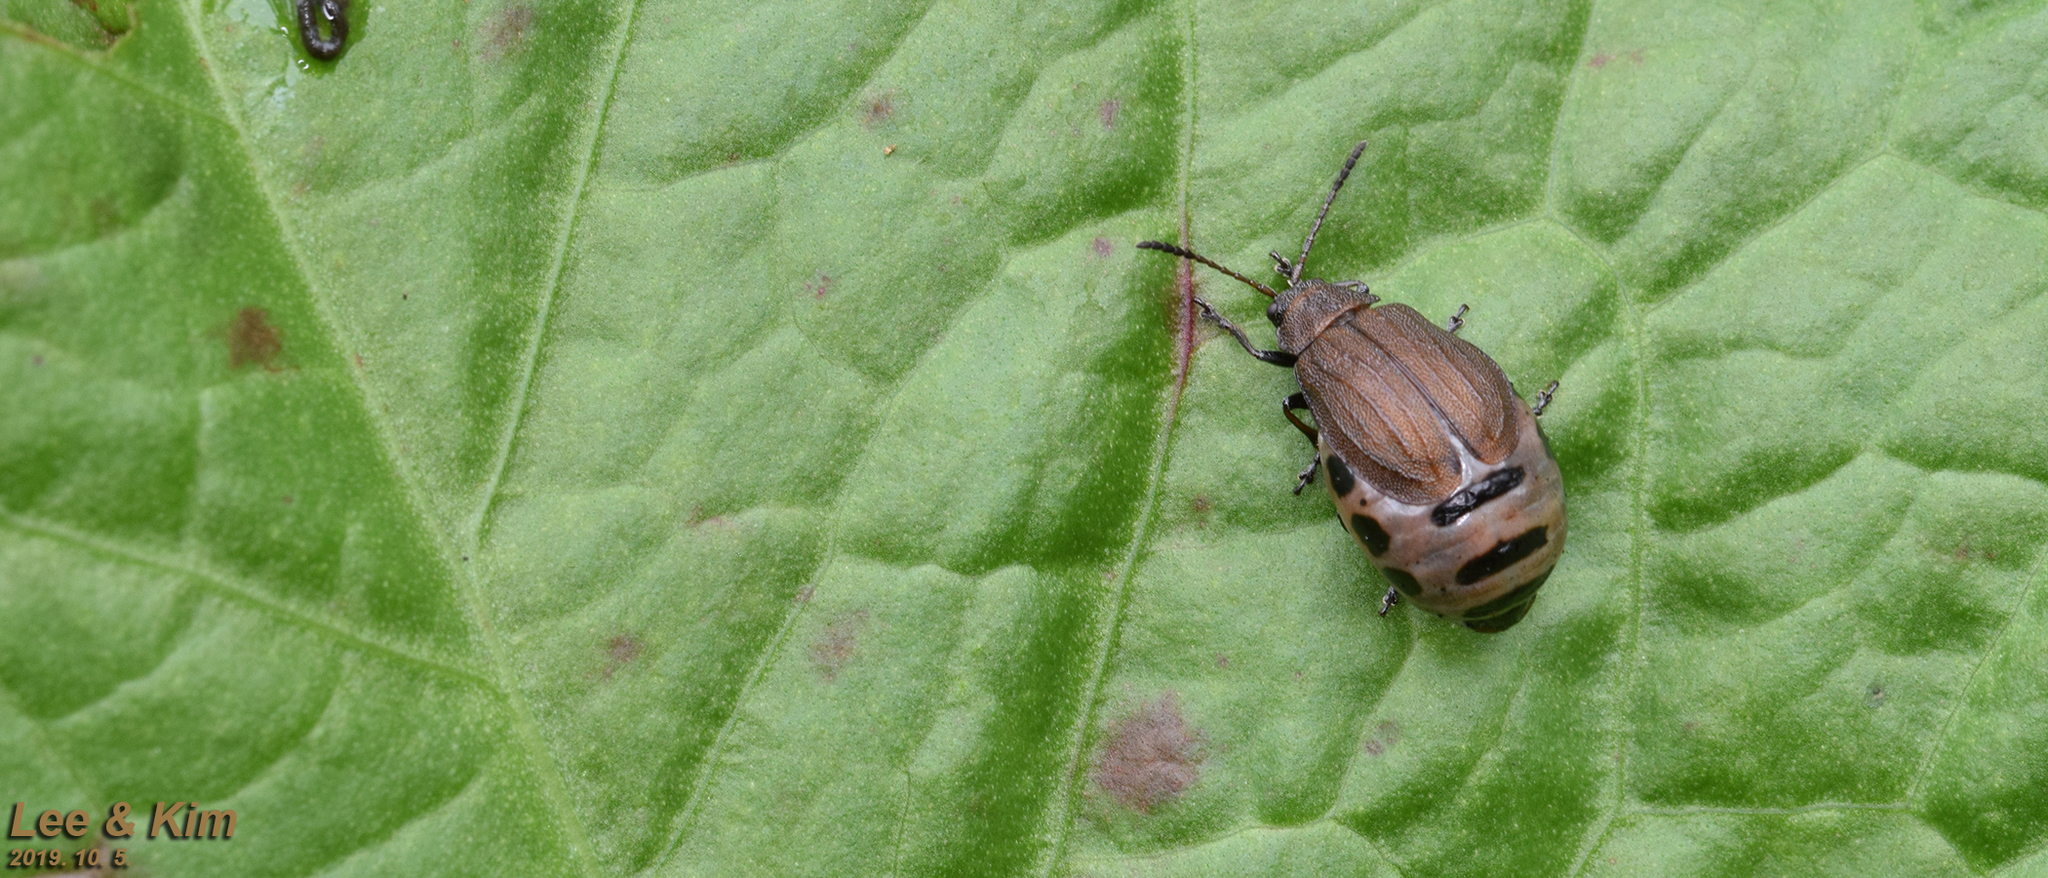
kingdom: Animalia
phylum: Arthropoda
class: Insecta
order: Coleoptera
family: Chrysomelidae
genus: Galeruca
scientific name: Galeruca
